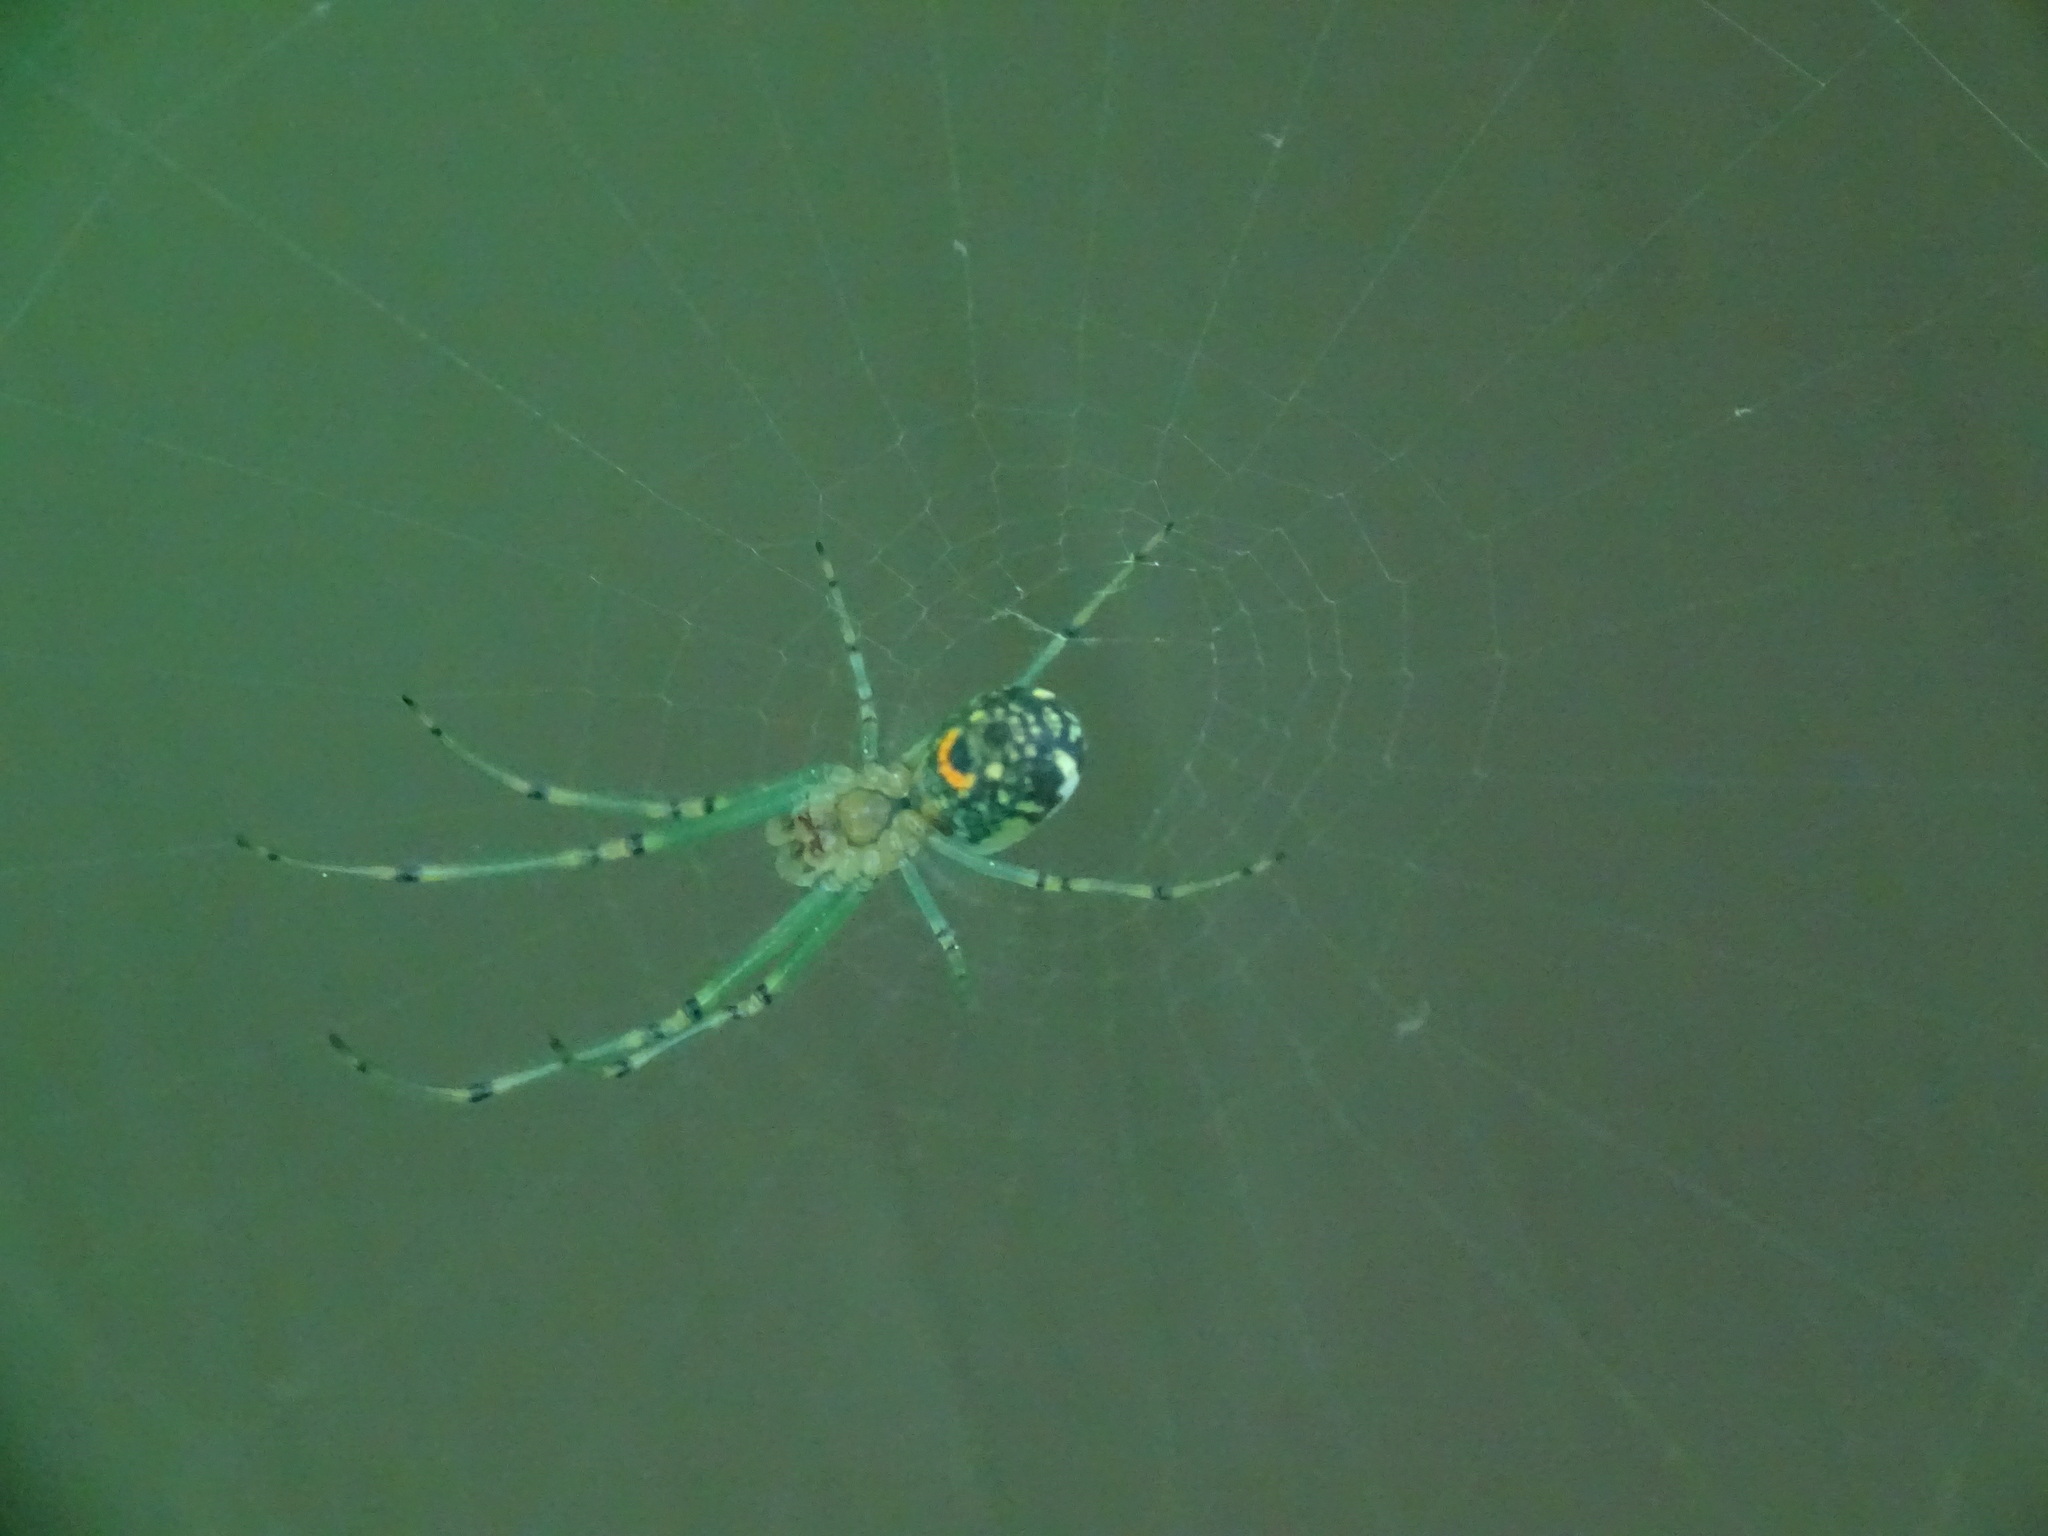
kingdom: Animalia
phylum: Arthropoda
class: Arachnida
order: Araneae
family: Tetragnathidae
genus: Leucauge
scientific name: Leucauge venusta
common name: Longjawed orb weavers
